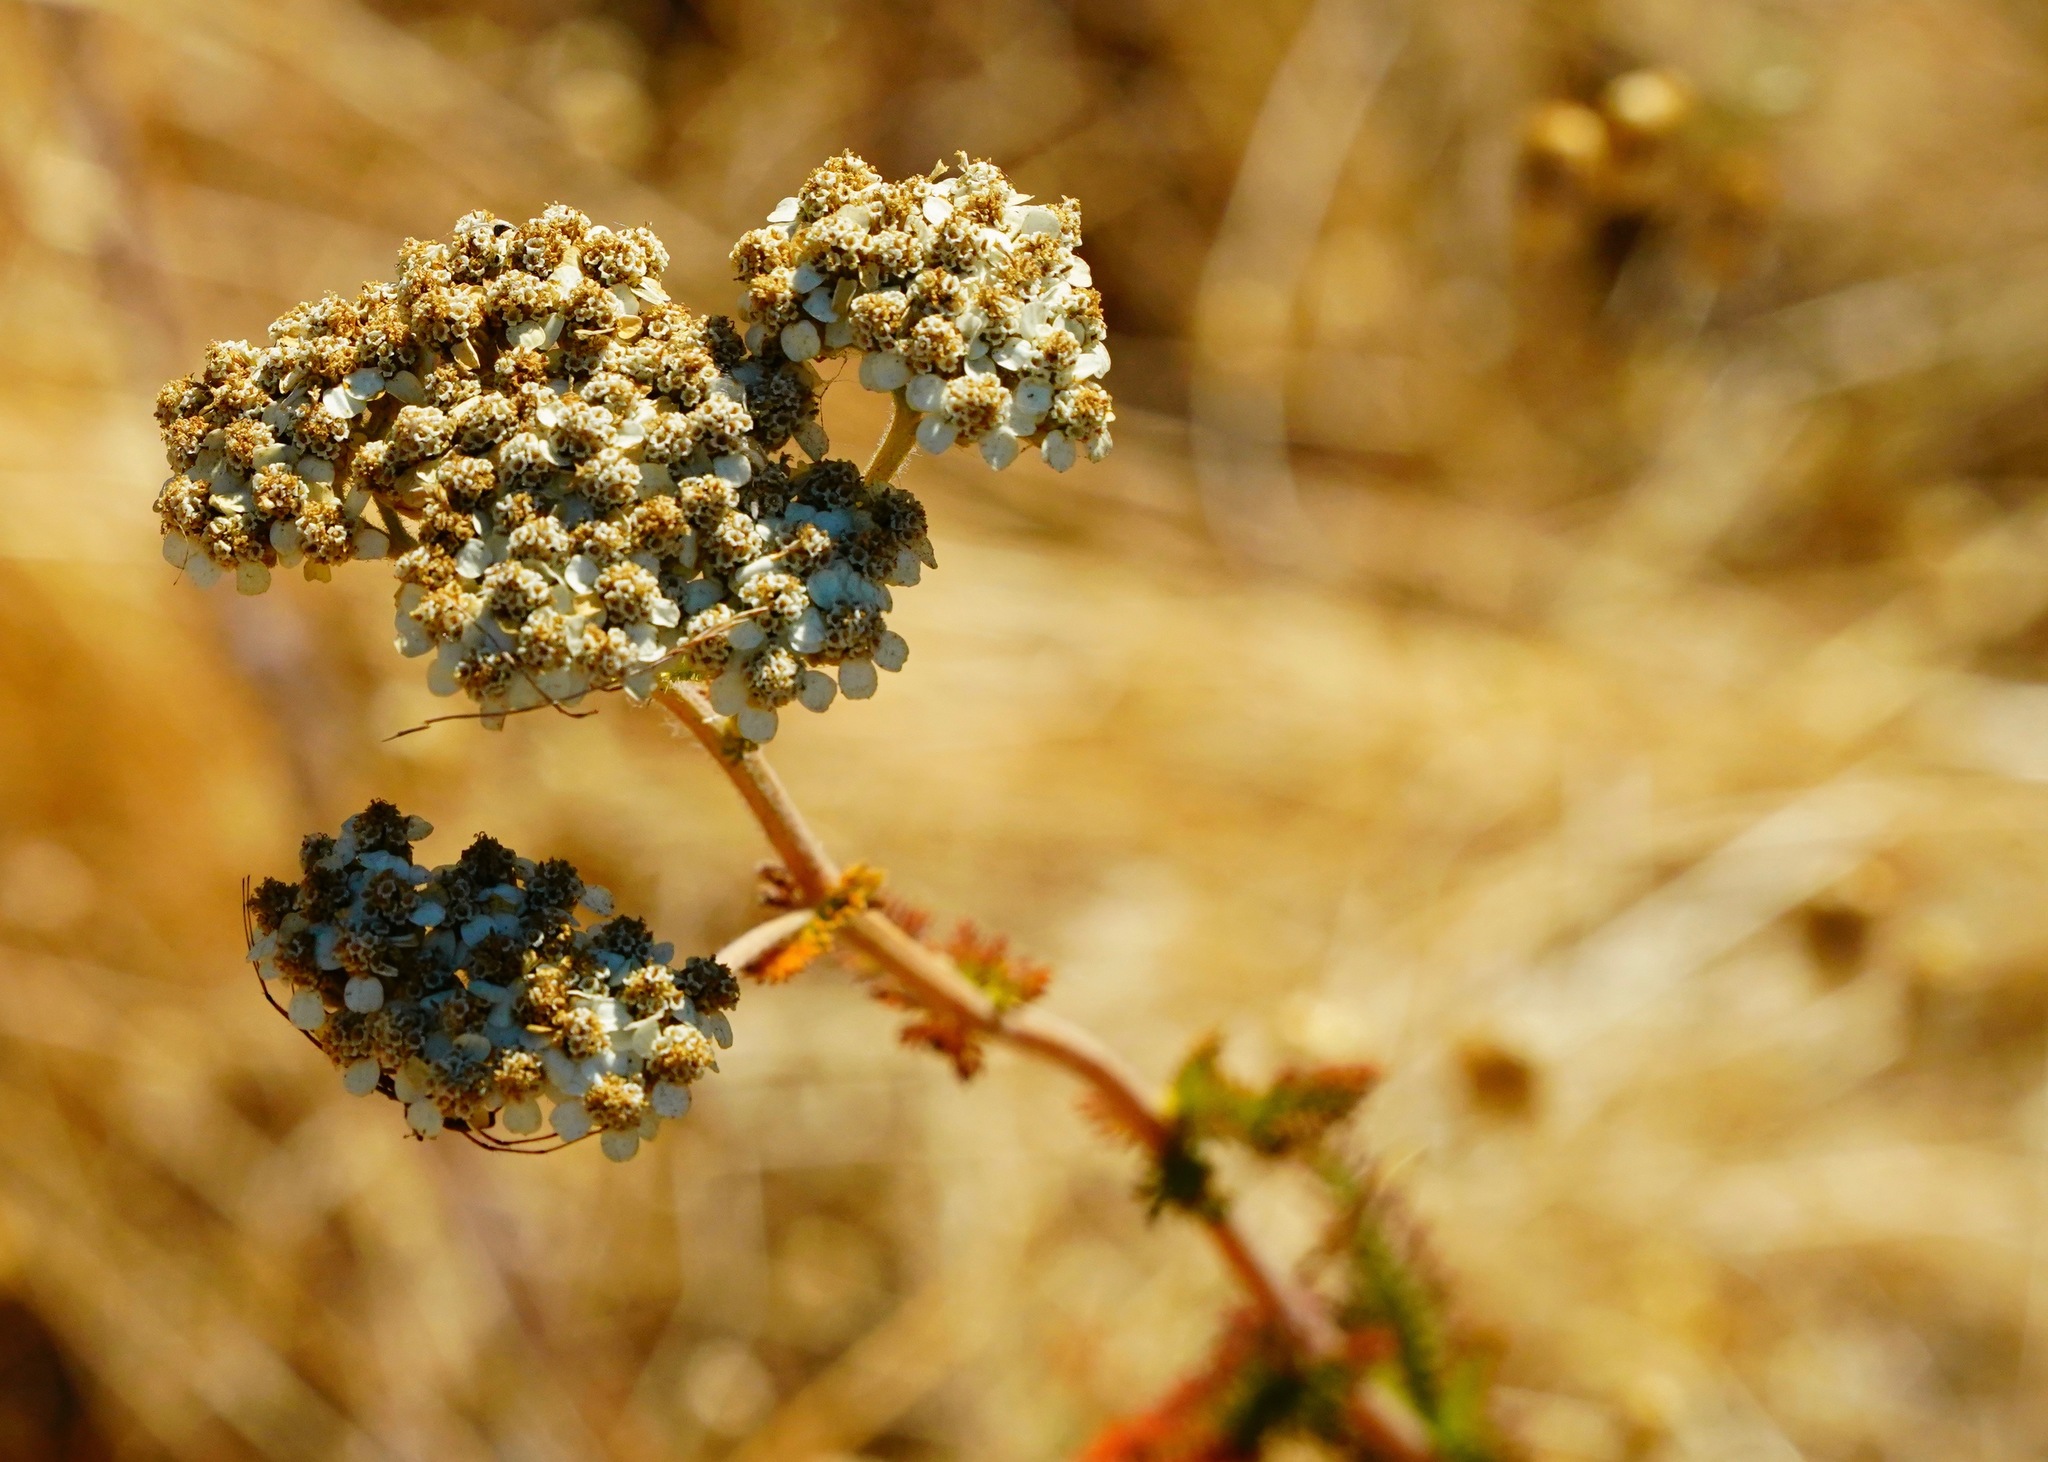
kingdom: Plantae
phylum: Tracheophyta
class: Magnoliopsida
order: Asterales
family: Asteraceae
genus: Achillea
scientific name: Achillea millefolium
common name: Yarrow
